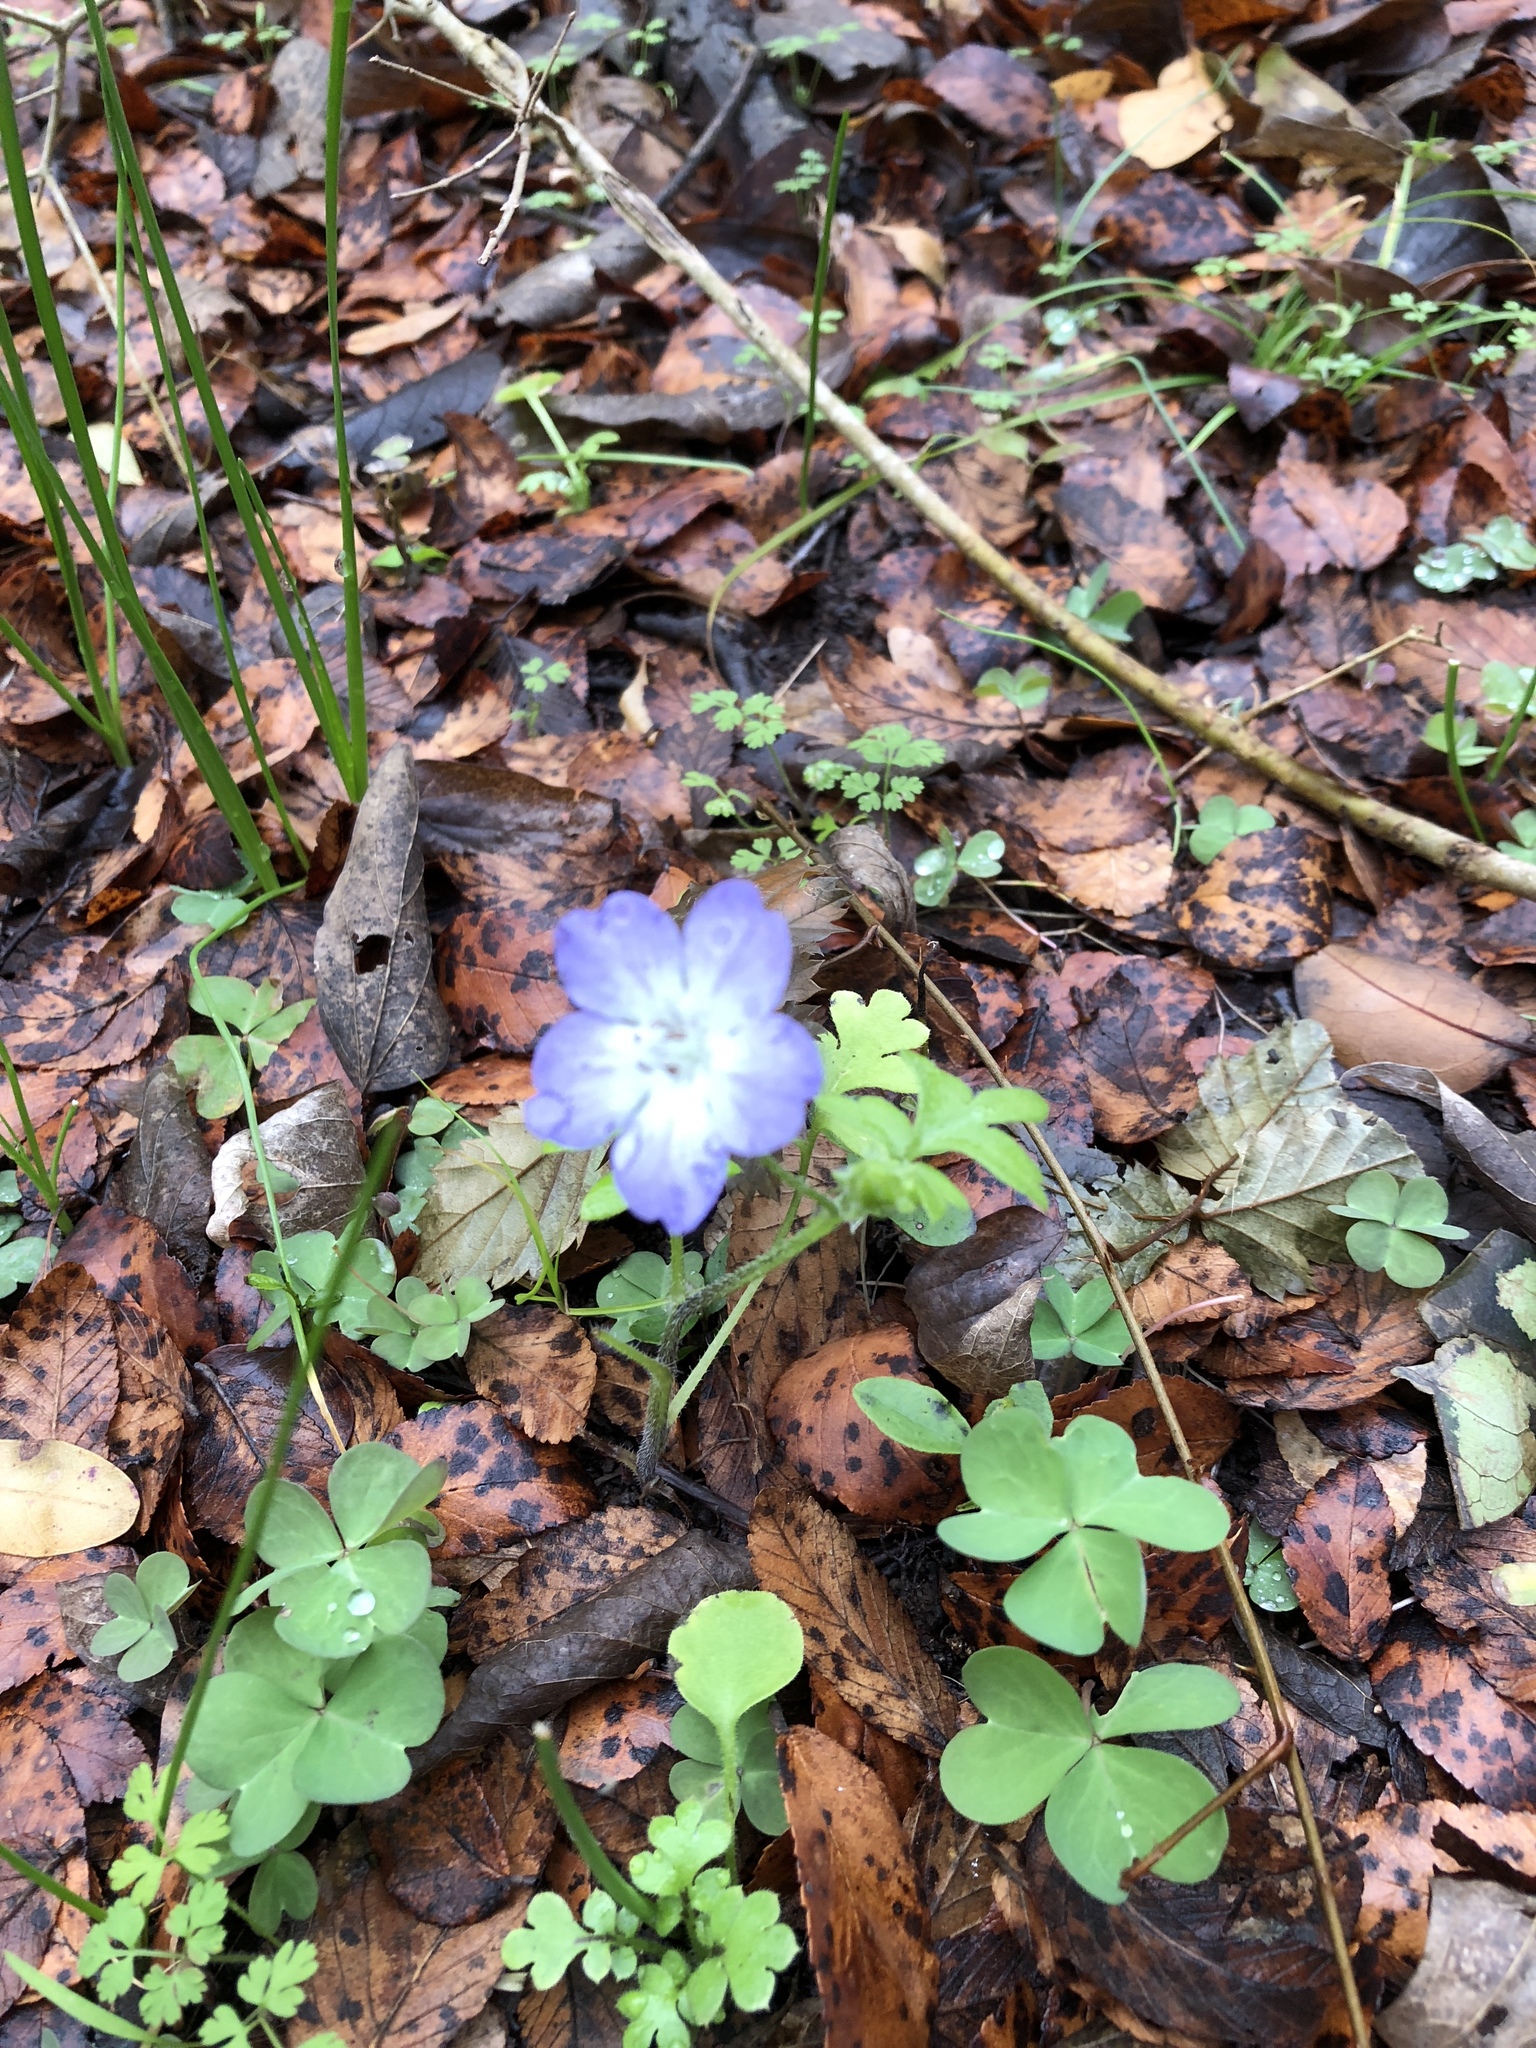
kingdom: Plantae
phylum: Tracheophyta
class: Magnoliopsida
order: Boraginales
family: Hydrophyllaceae
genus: Nemophila
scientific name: Nemophila phacelioides
